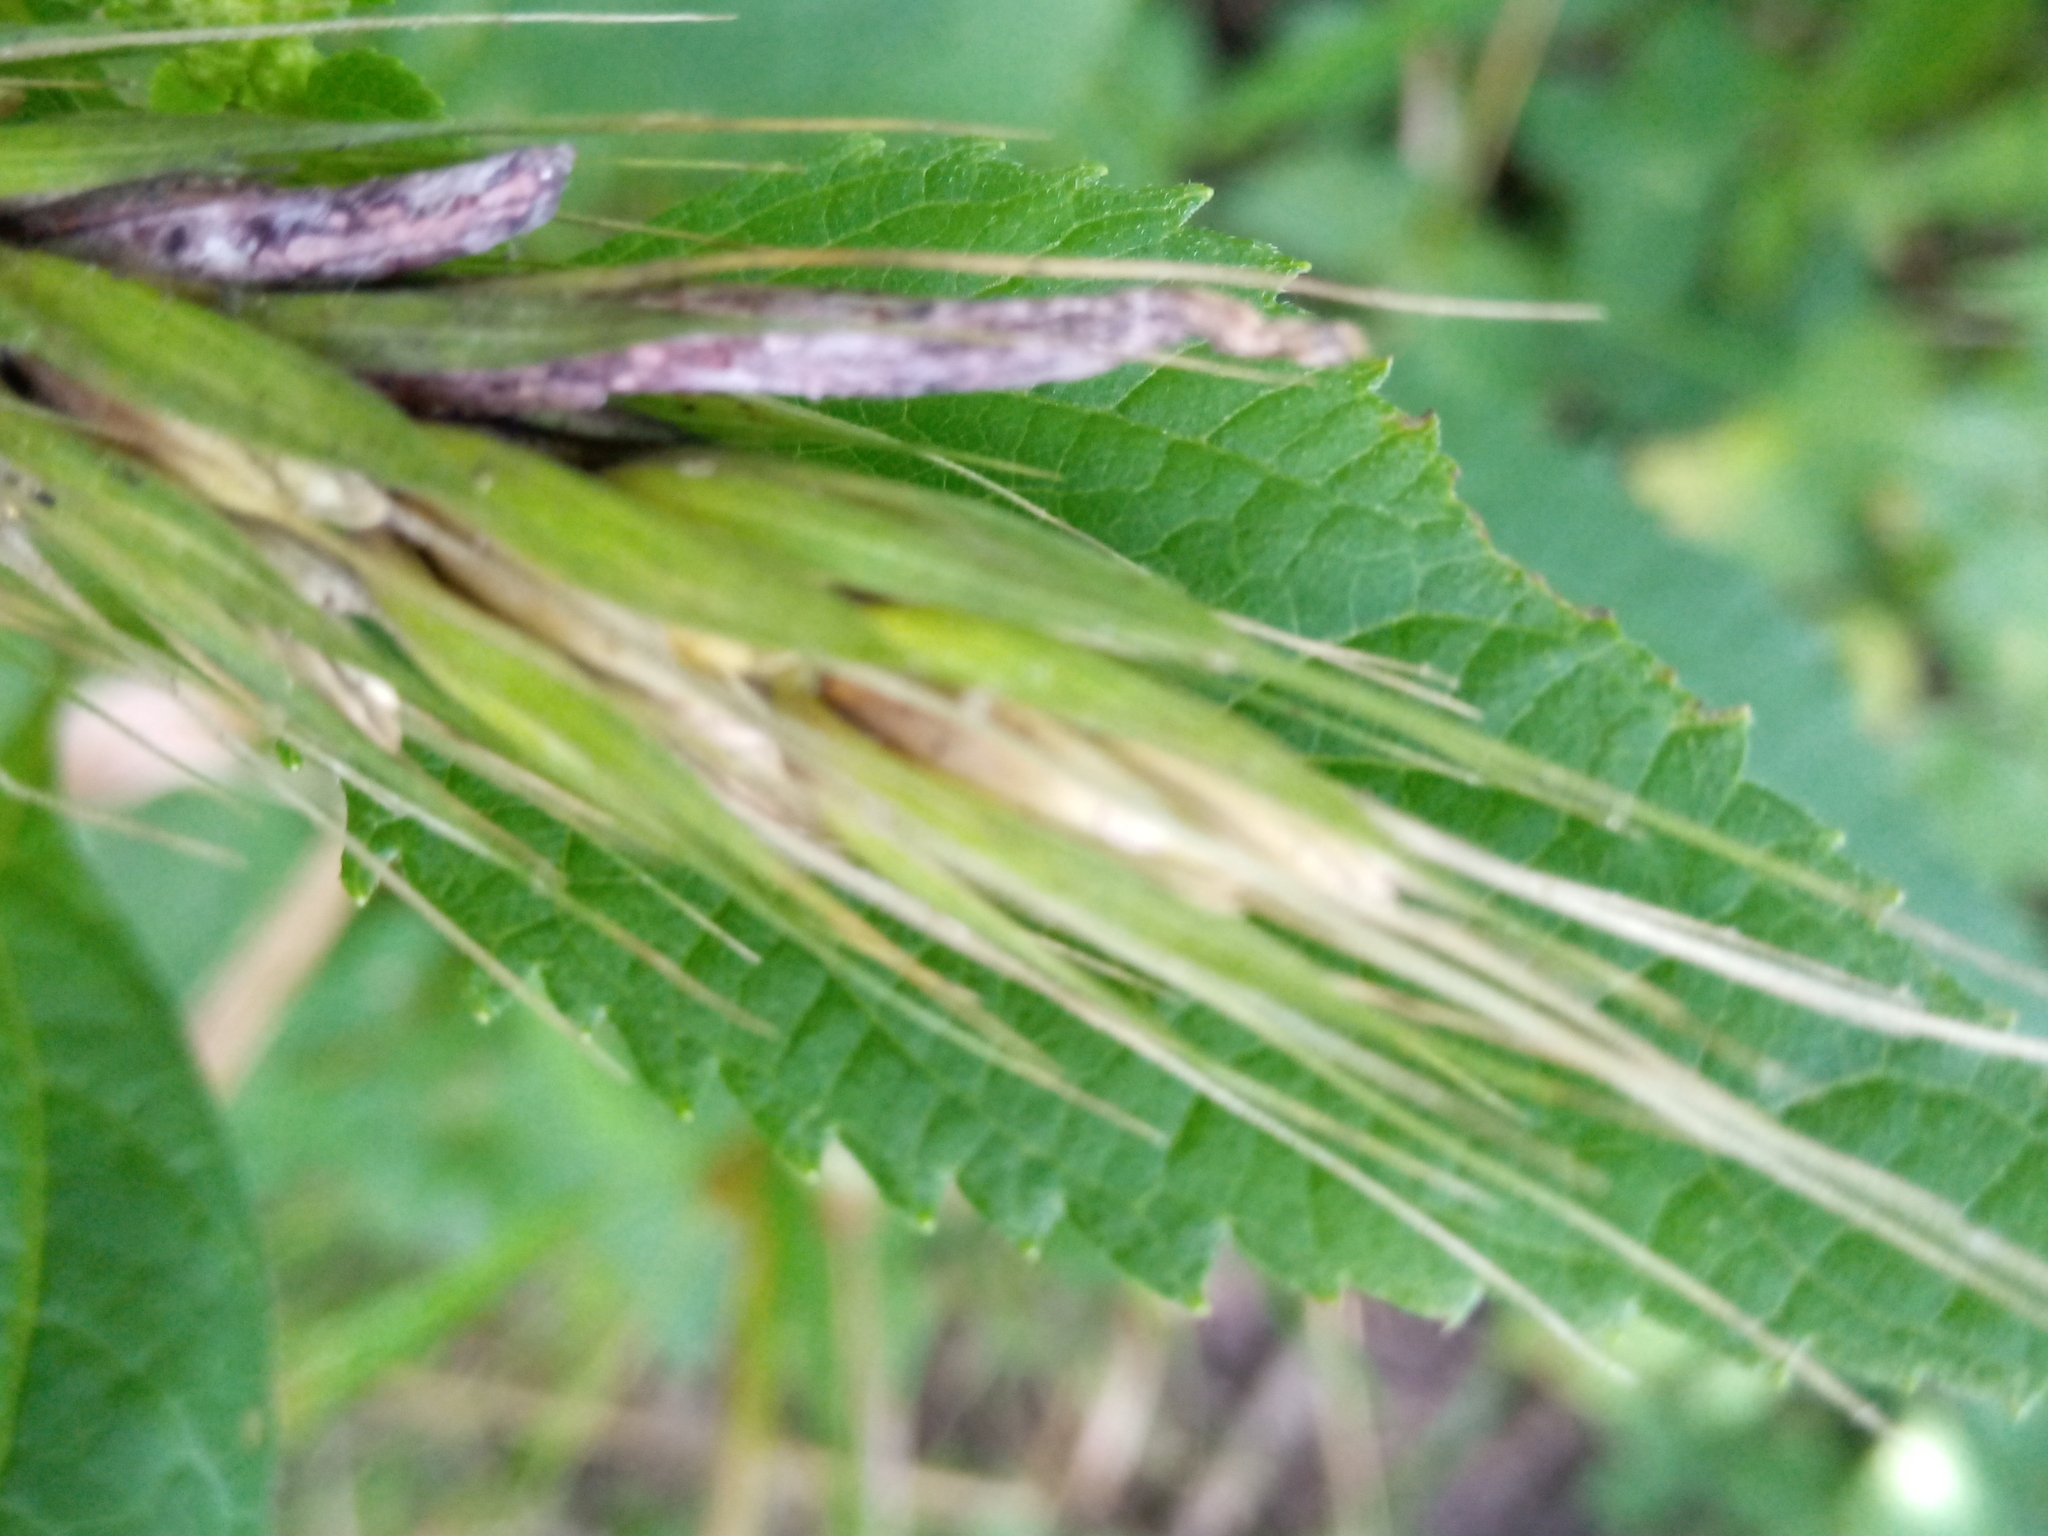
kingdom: Fungi
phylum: Ascomycota
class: Sordariomycetes
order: Hypocreales
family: Clavicipitaceae
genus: Claviceps
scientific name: Claviceps purpurea
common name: Rye ergot
